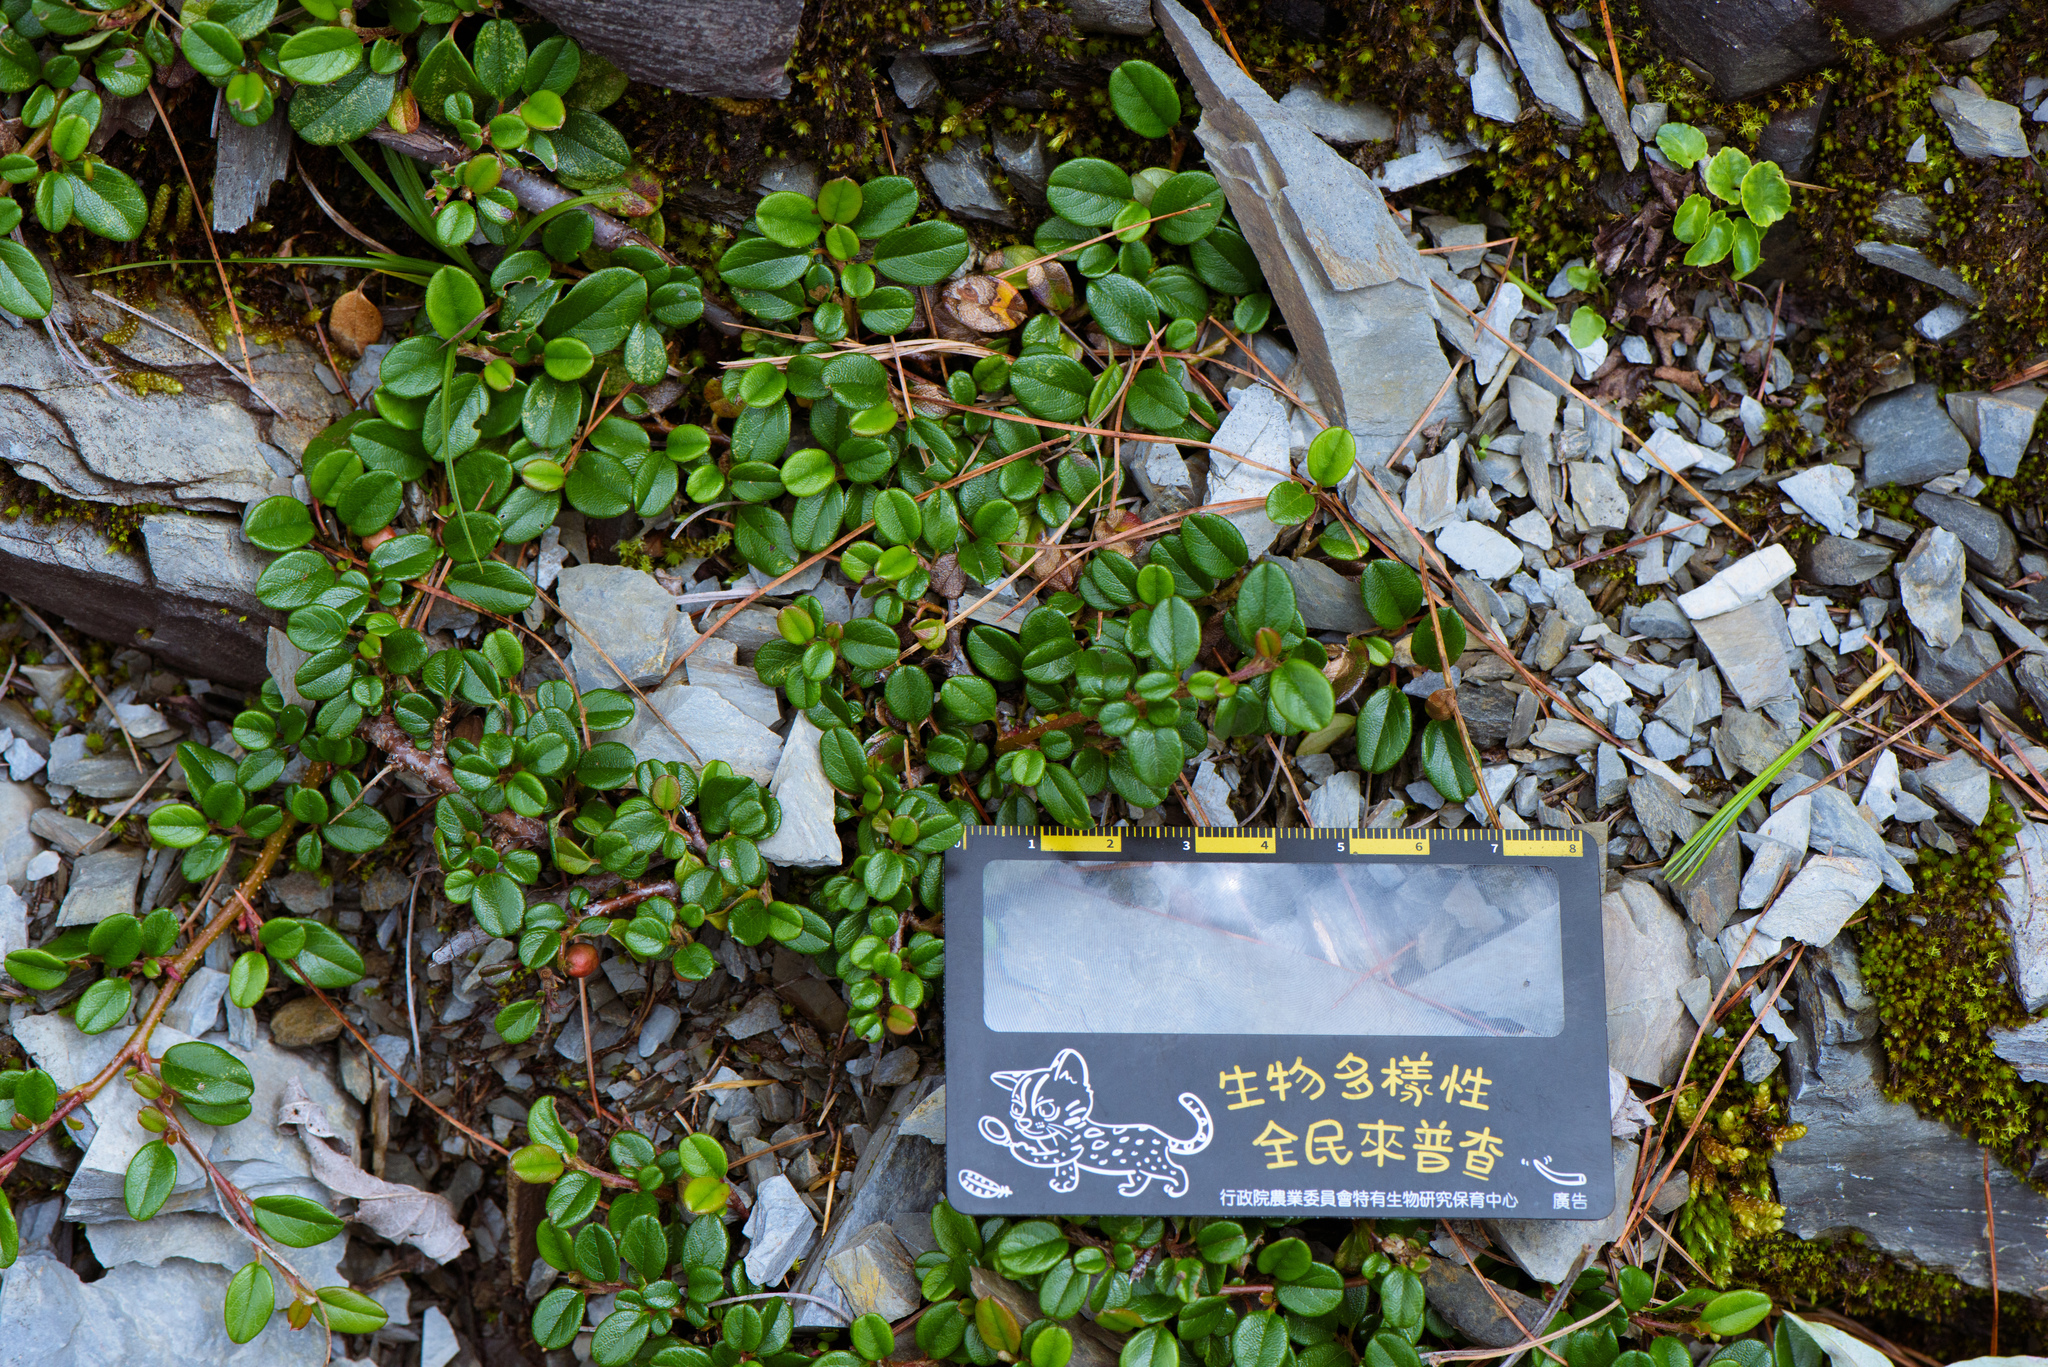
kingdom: Plantae
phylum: Tracheophyta
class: Magnoliopsida
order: Rosales
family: Rosaceae
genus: Cotoneaster
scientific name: Cotoneaster dammeri
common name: Bearberry cotoneaster
